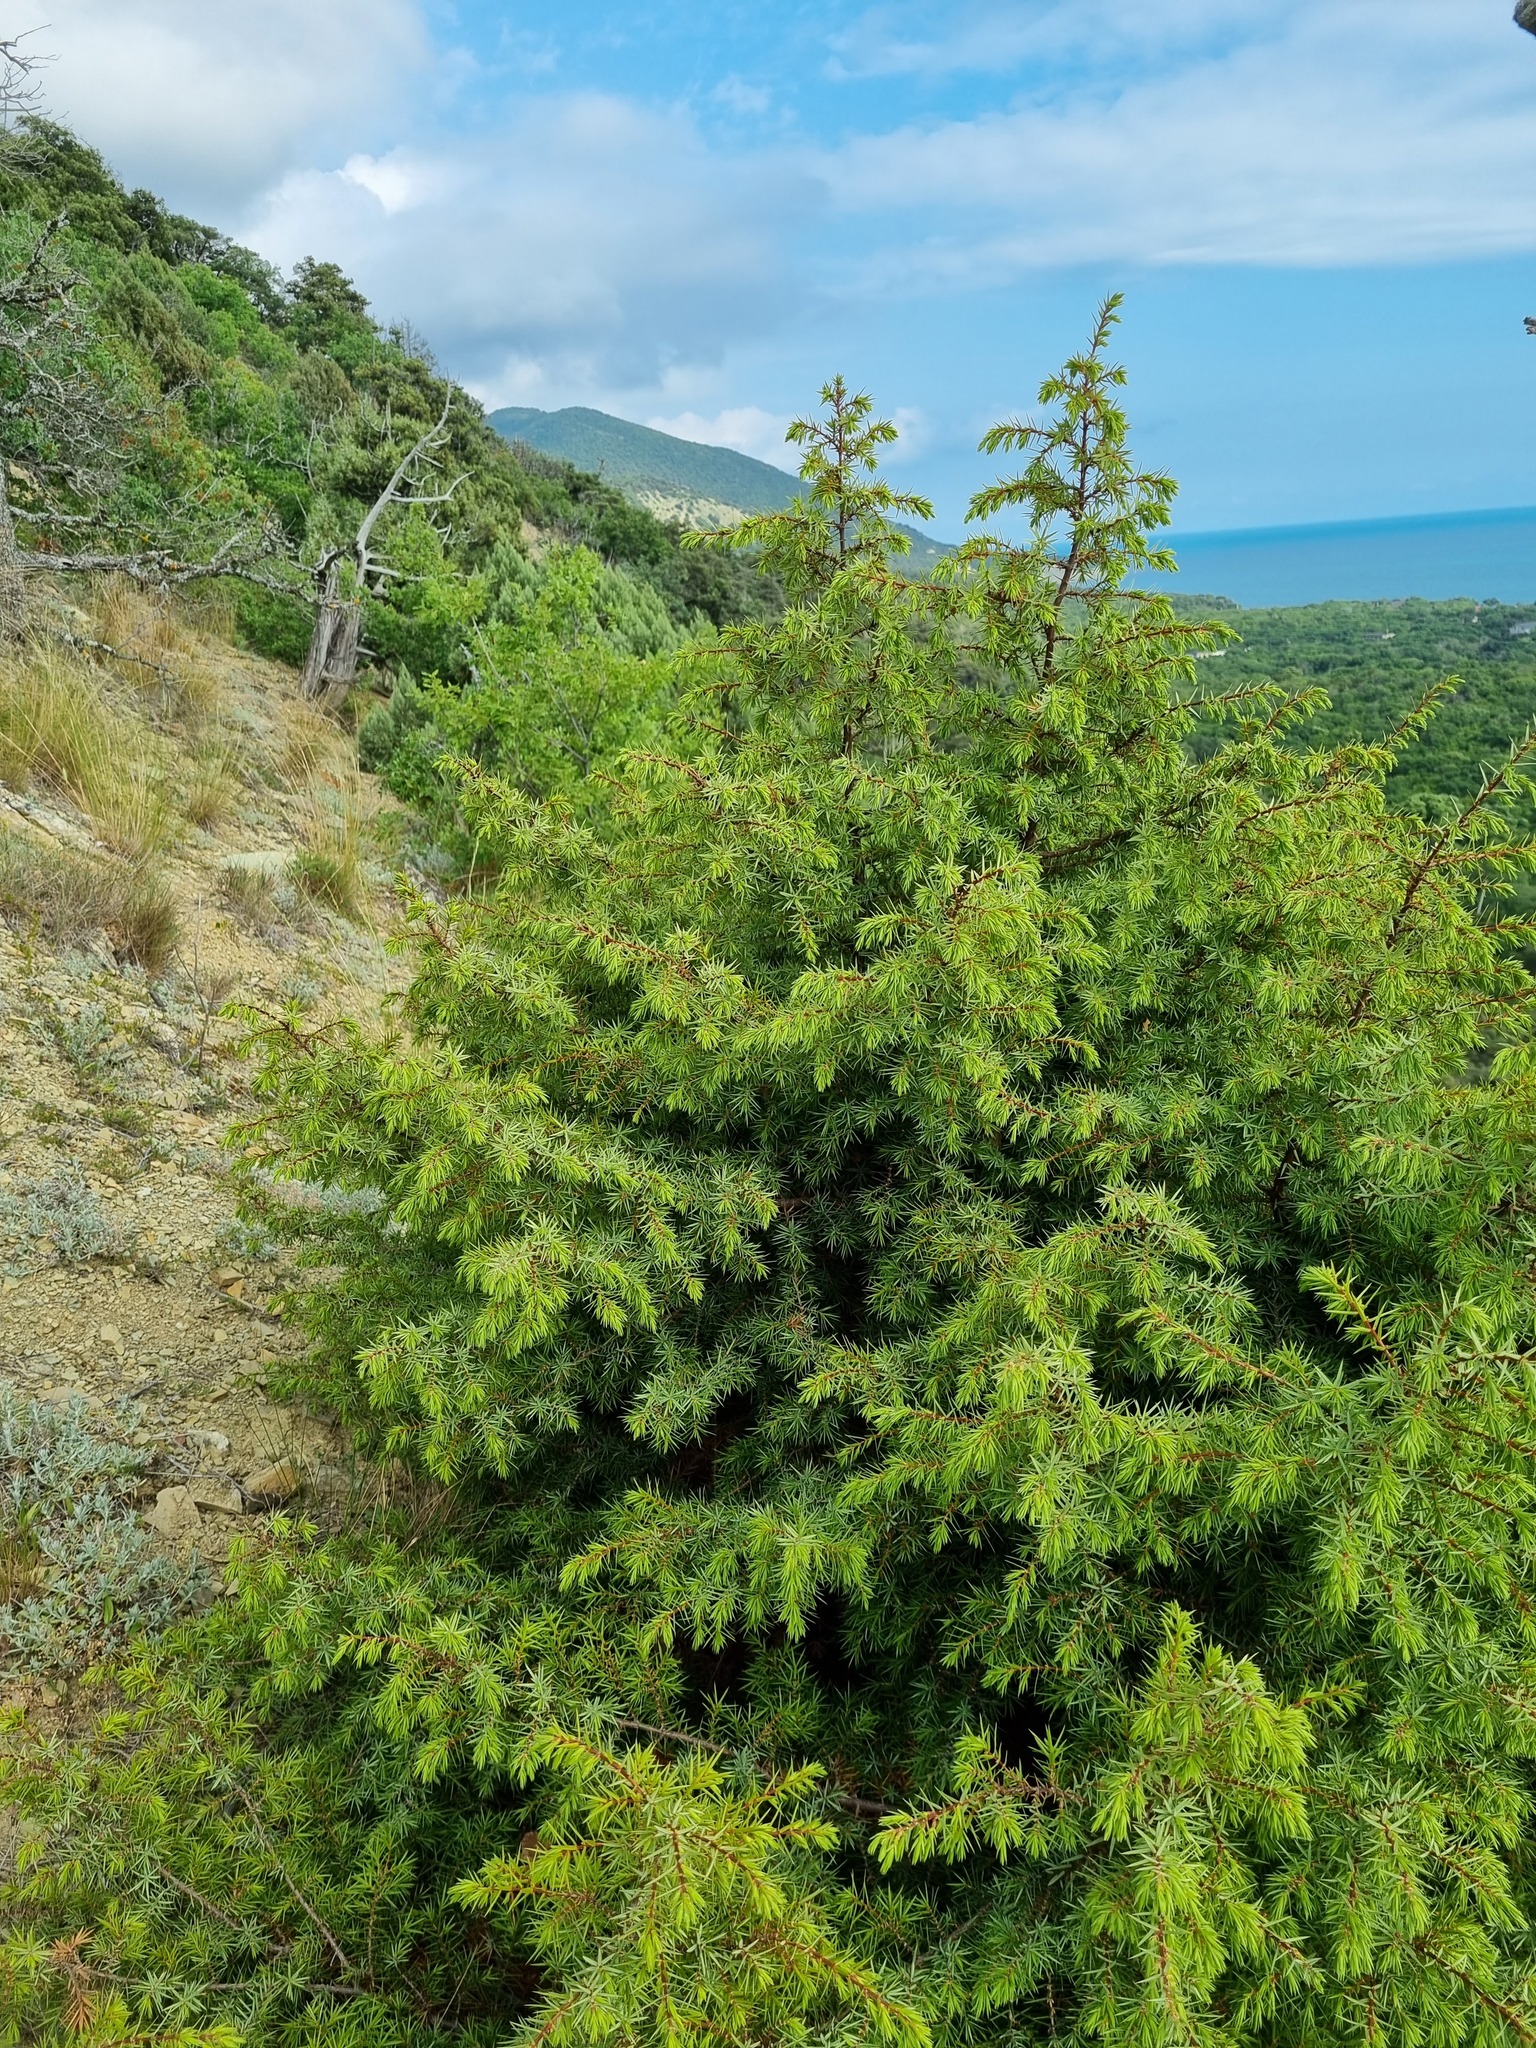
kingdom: Plantae
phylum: Tracheophyta
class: Pinopsida
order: Pinales
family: Cupressaceae
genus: Juniperus
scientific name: Juniperus oxycedrus
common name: Prickly juniper
